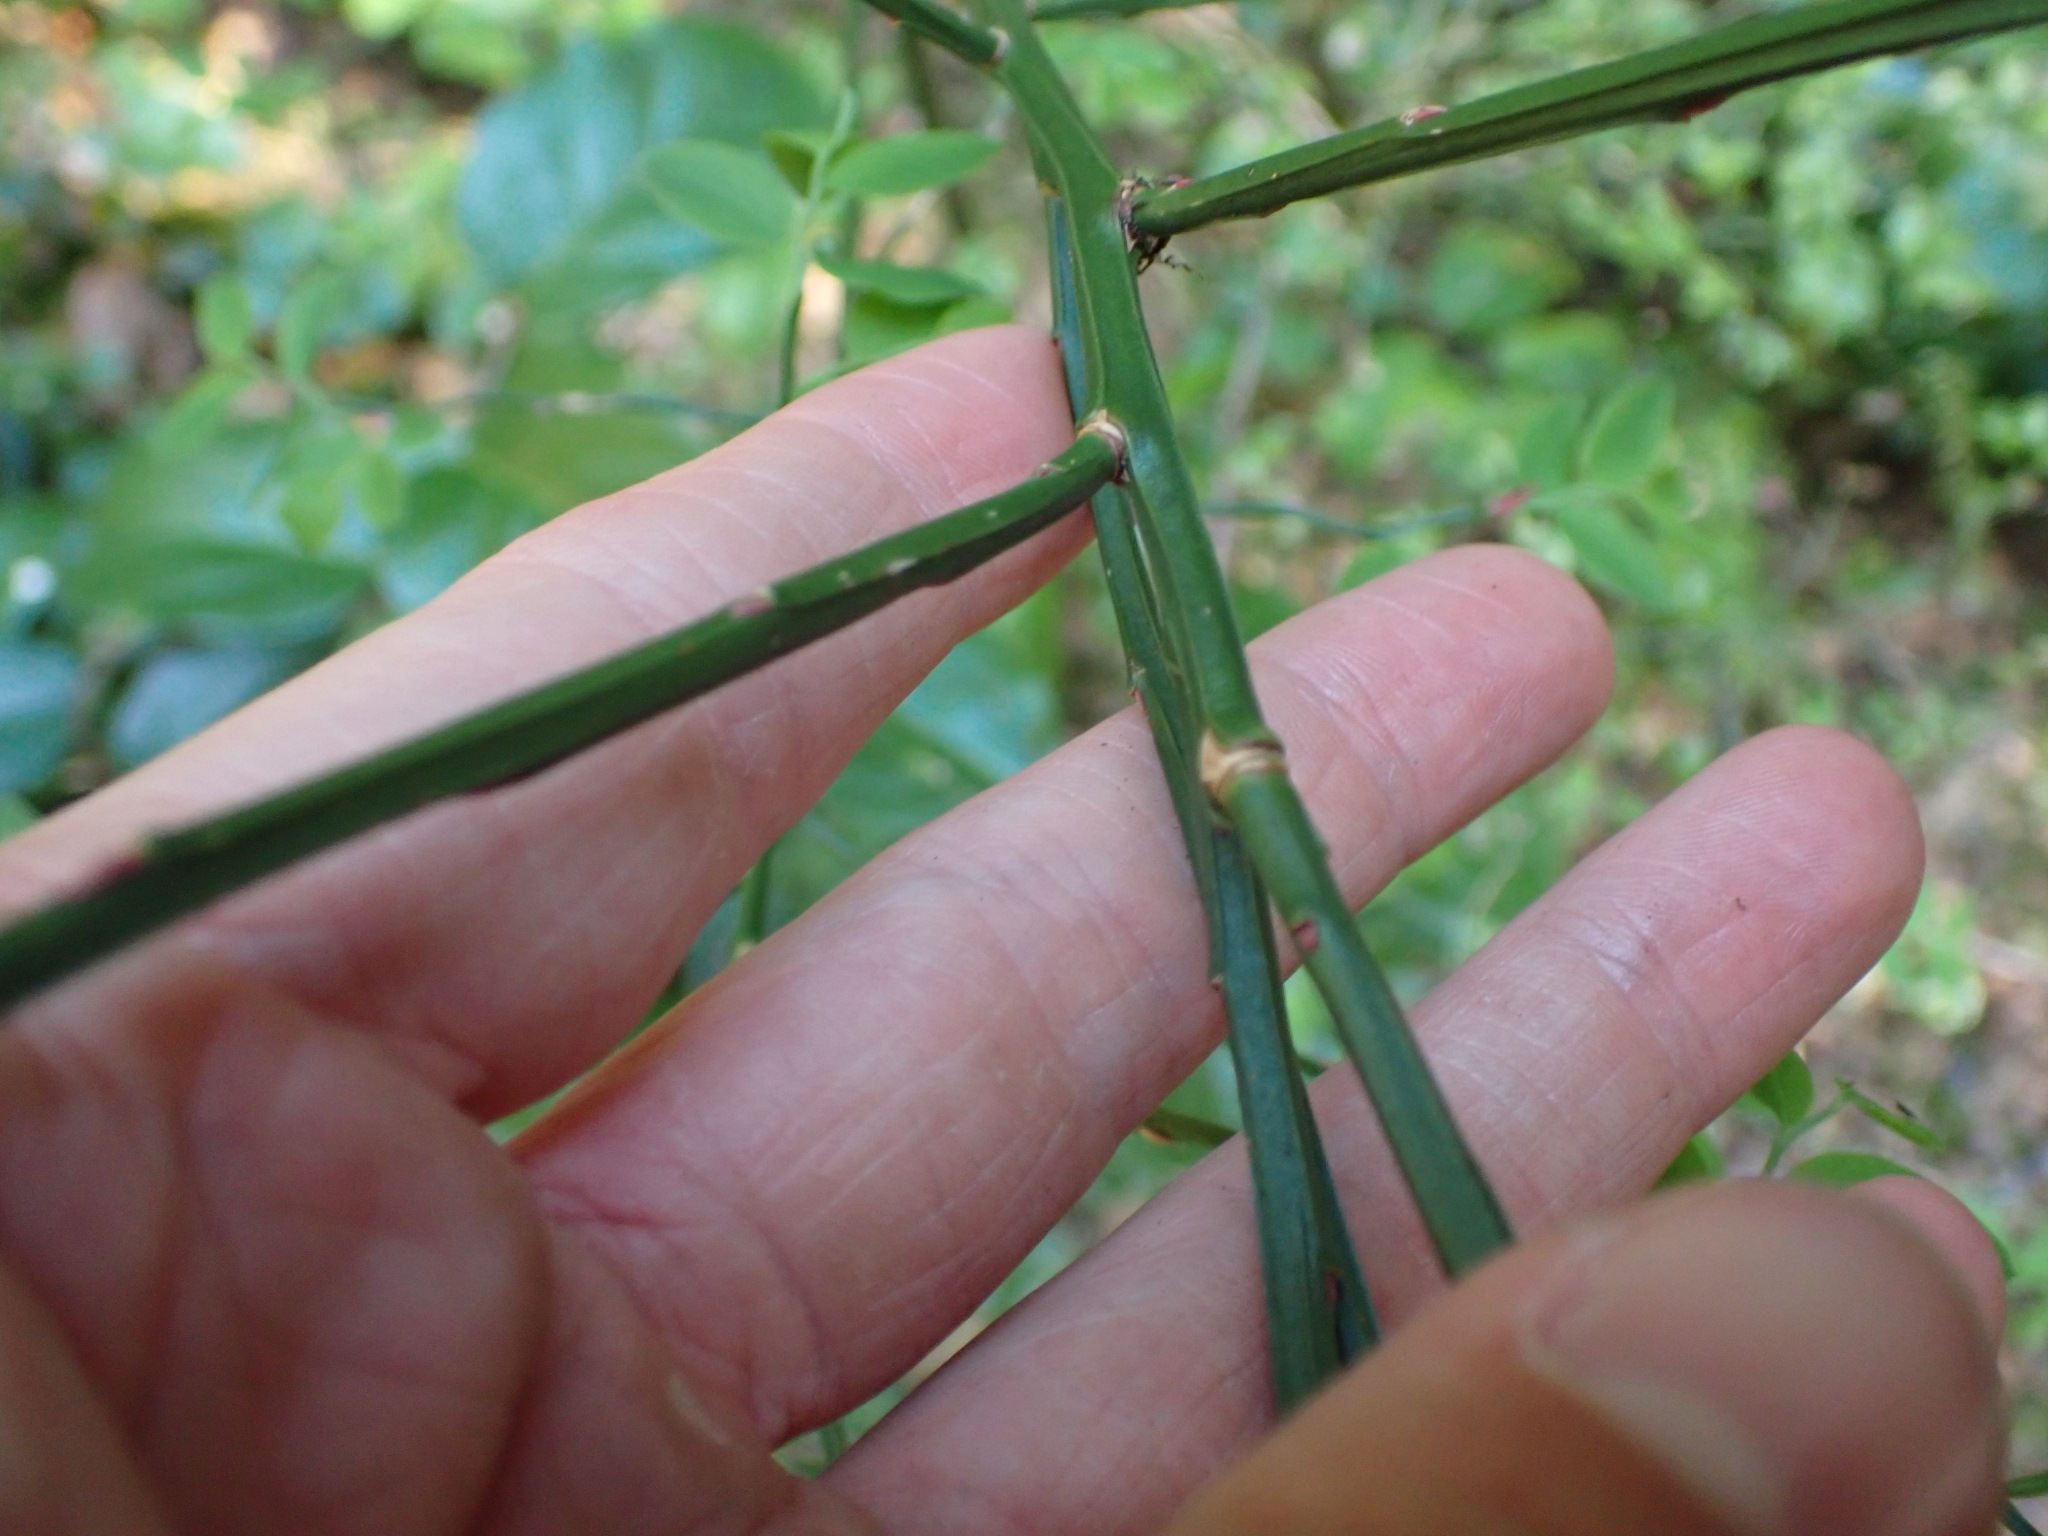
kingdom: Plantae
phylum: Tracheophyta
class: Magnoliopsida
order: Ericales
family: Ericaceae
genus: Vaccinium
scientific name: Vaccinium parvifolium
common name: Red-huckleberry
